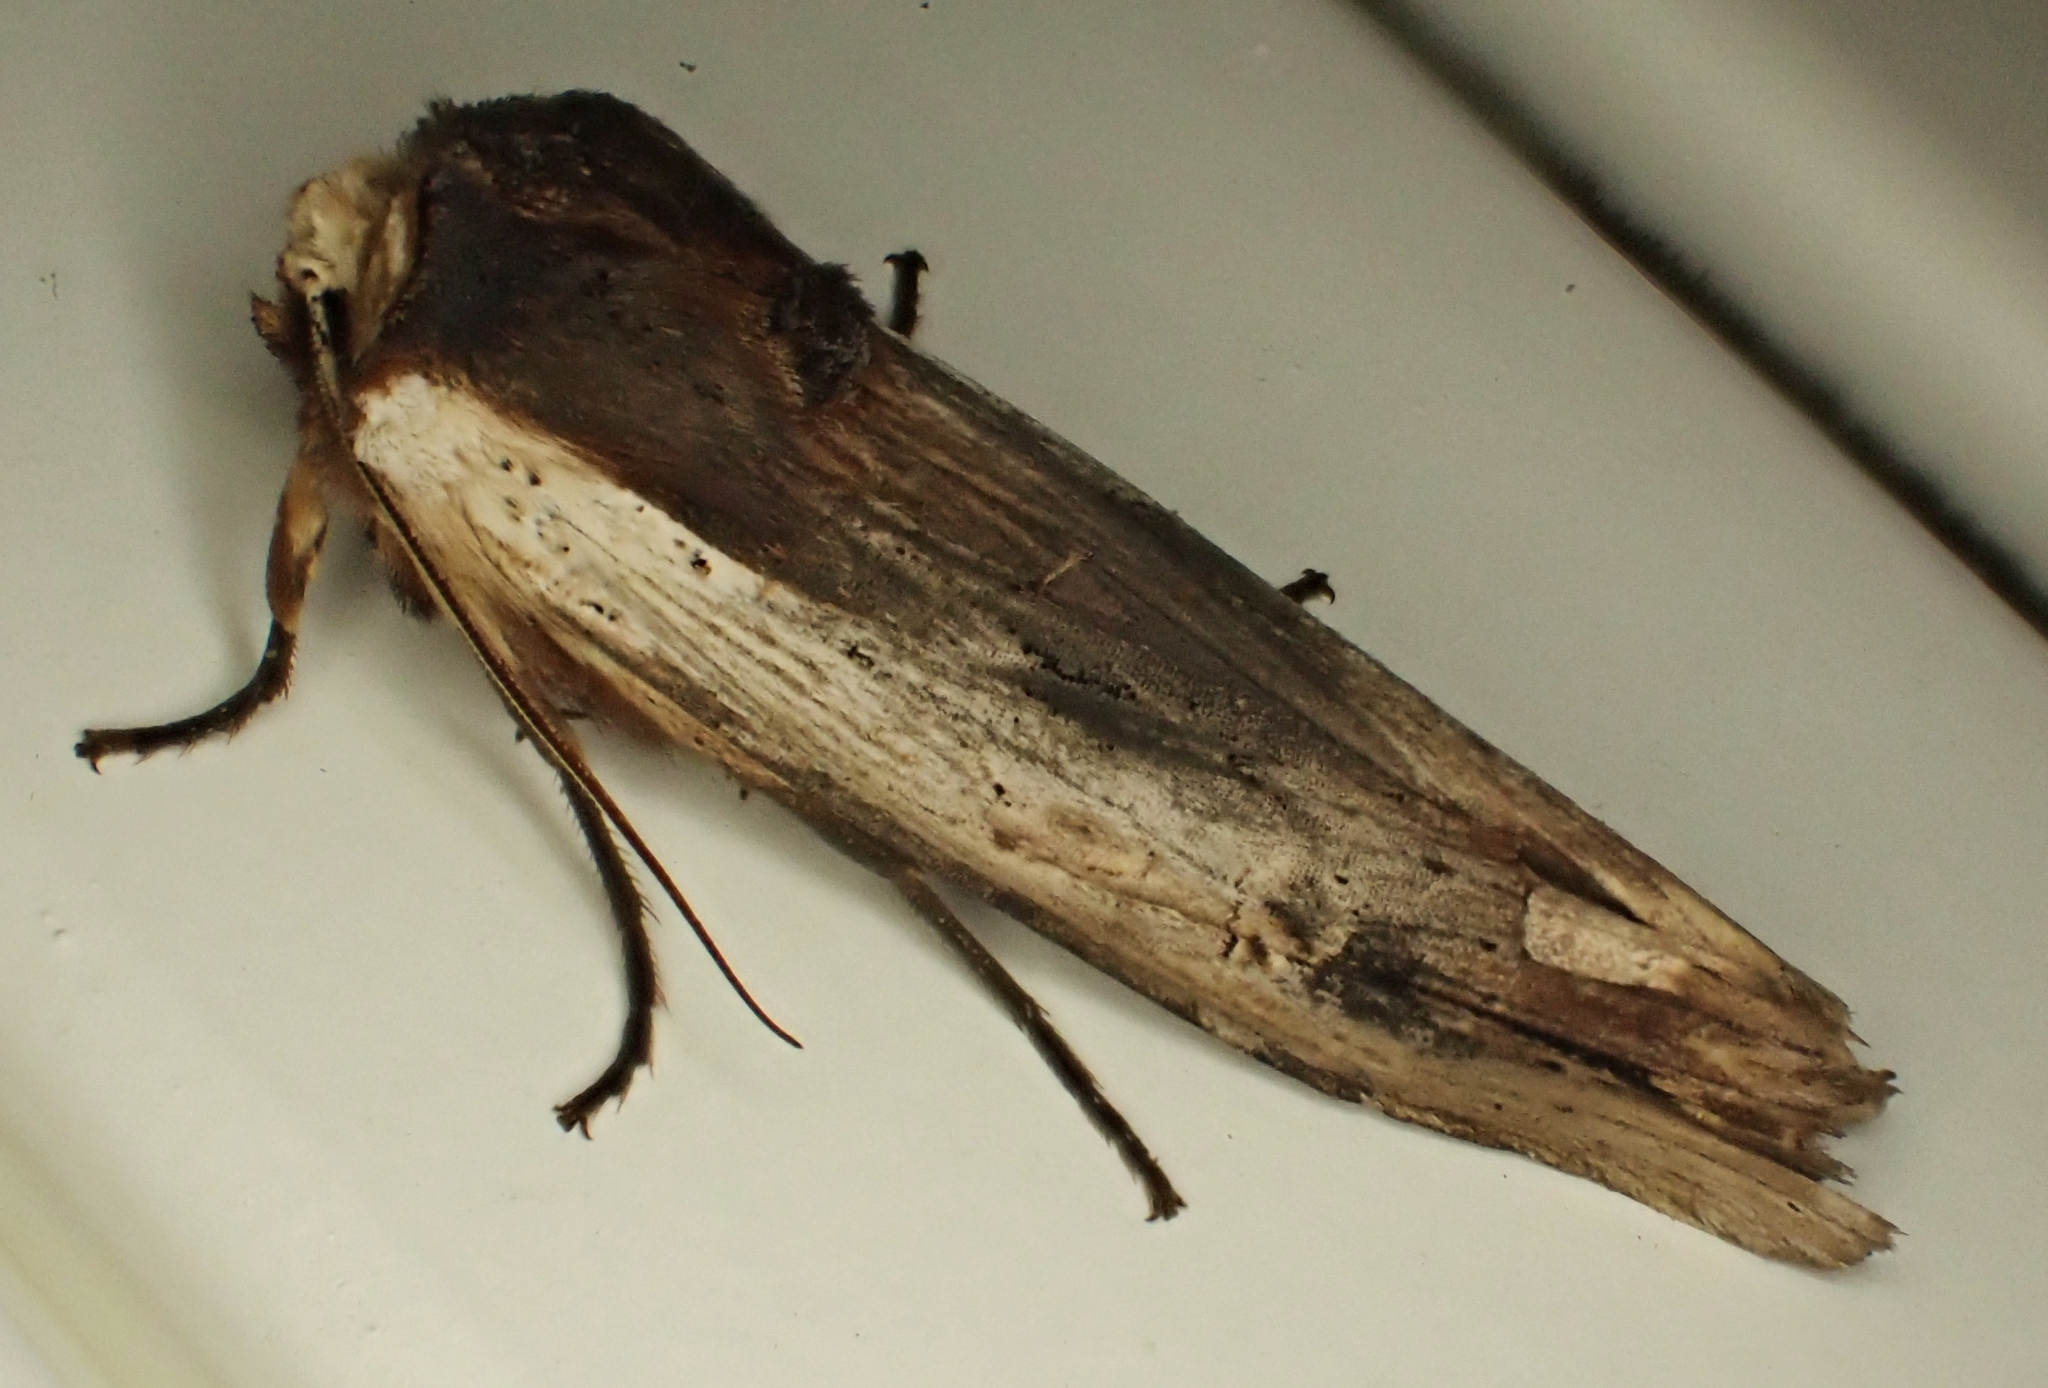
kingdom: Animalia
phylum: Arthropoda
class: Insecta
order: Lepidoptera
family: Noctuidae
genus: Xylena
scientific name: Xylena vetusta
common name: Red sword-grass
